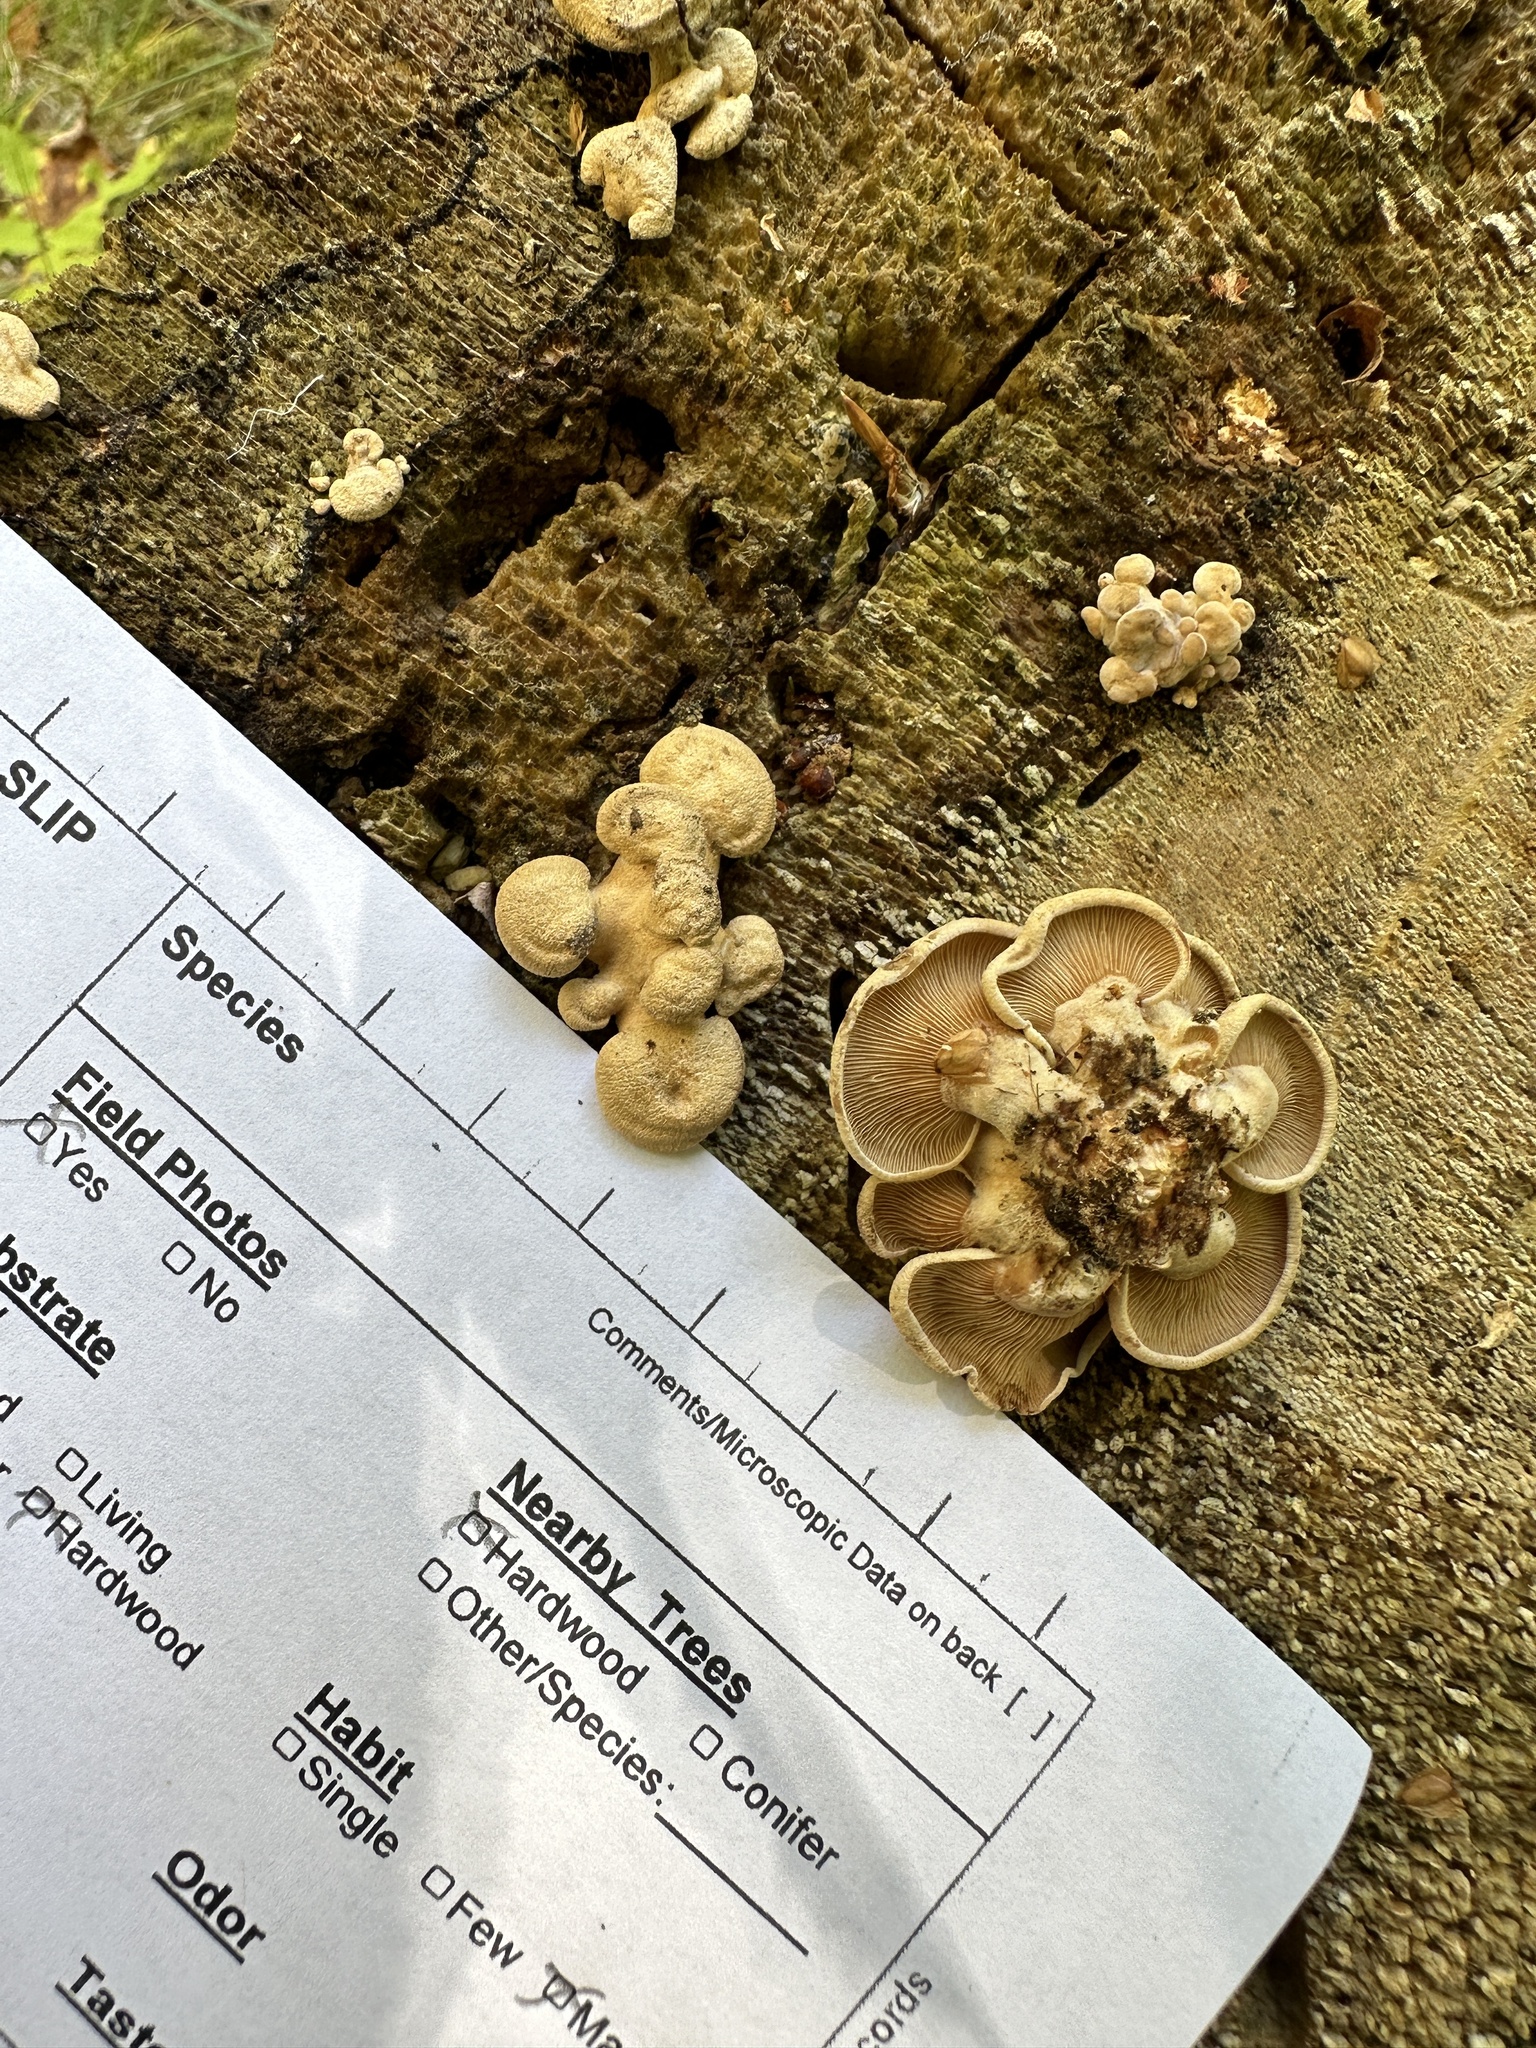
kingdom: Fungi
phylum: Basidiomycota
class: Agaricomycetes
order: Agaricales
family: Mycenaceae
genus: Panellus
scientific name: Panellus stipticus
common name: Bitter oysterling
